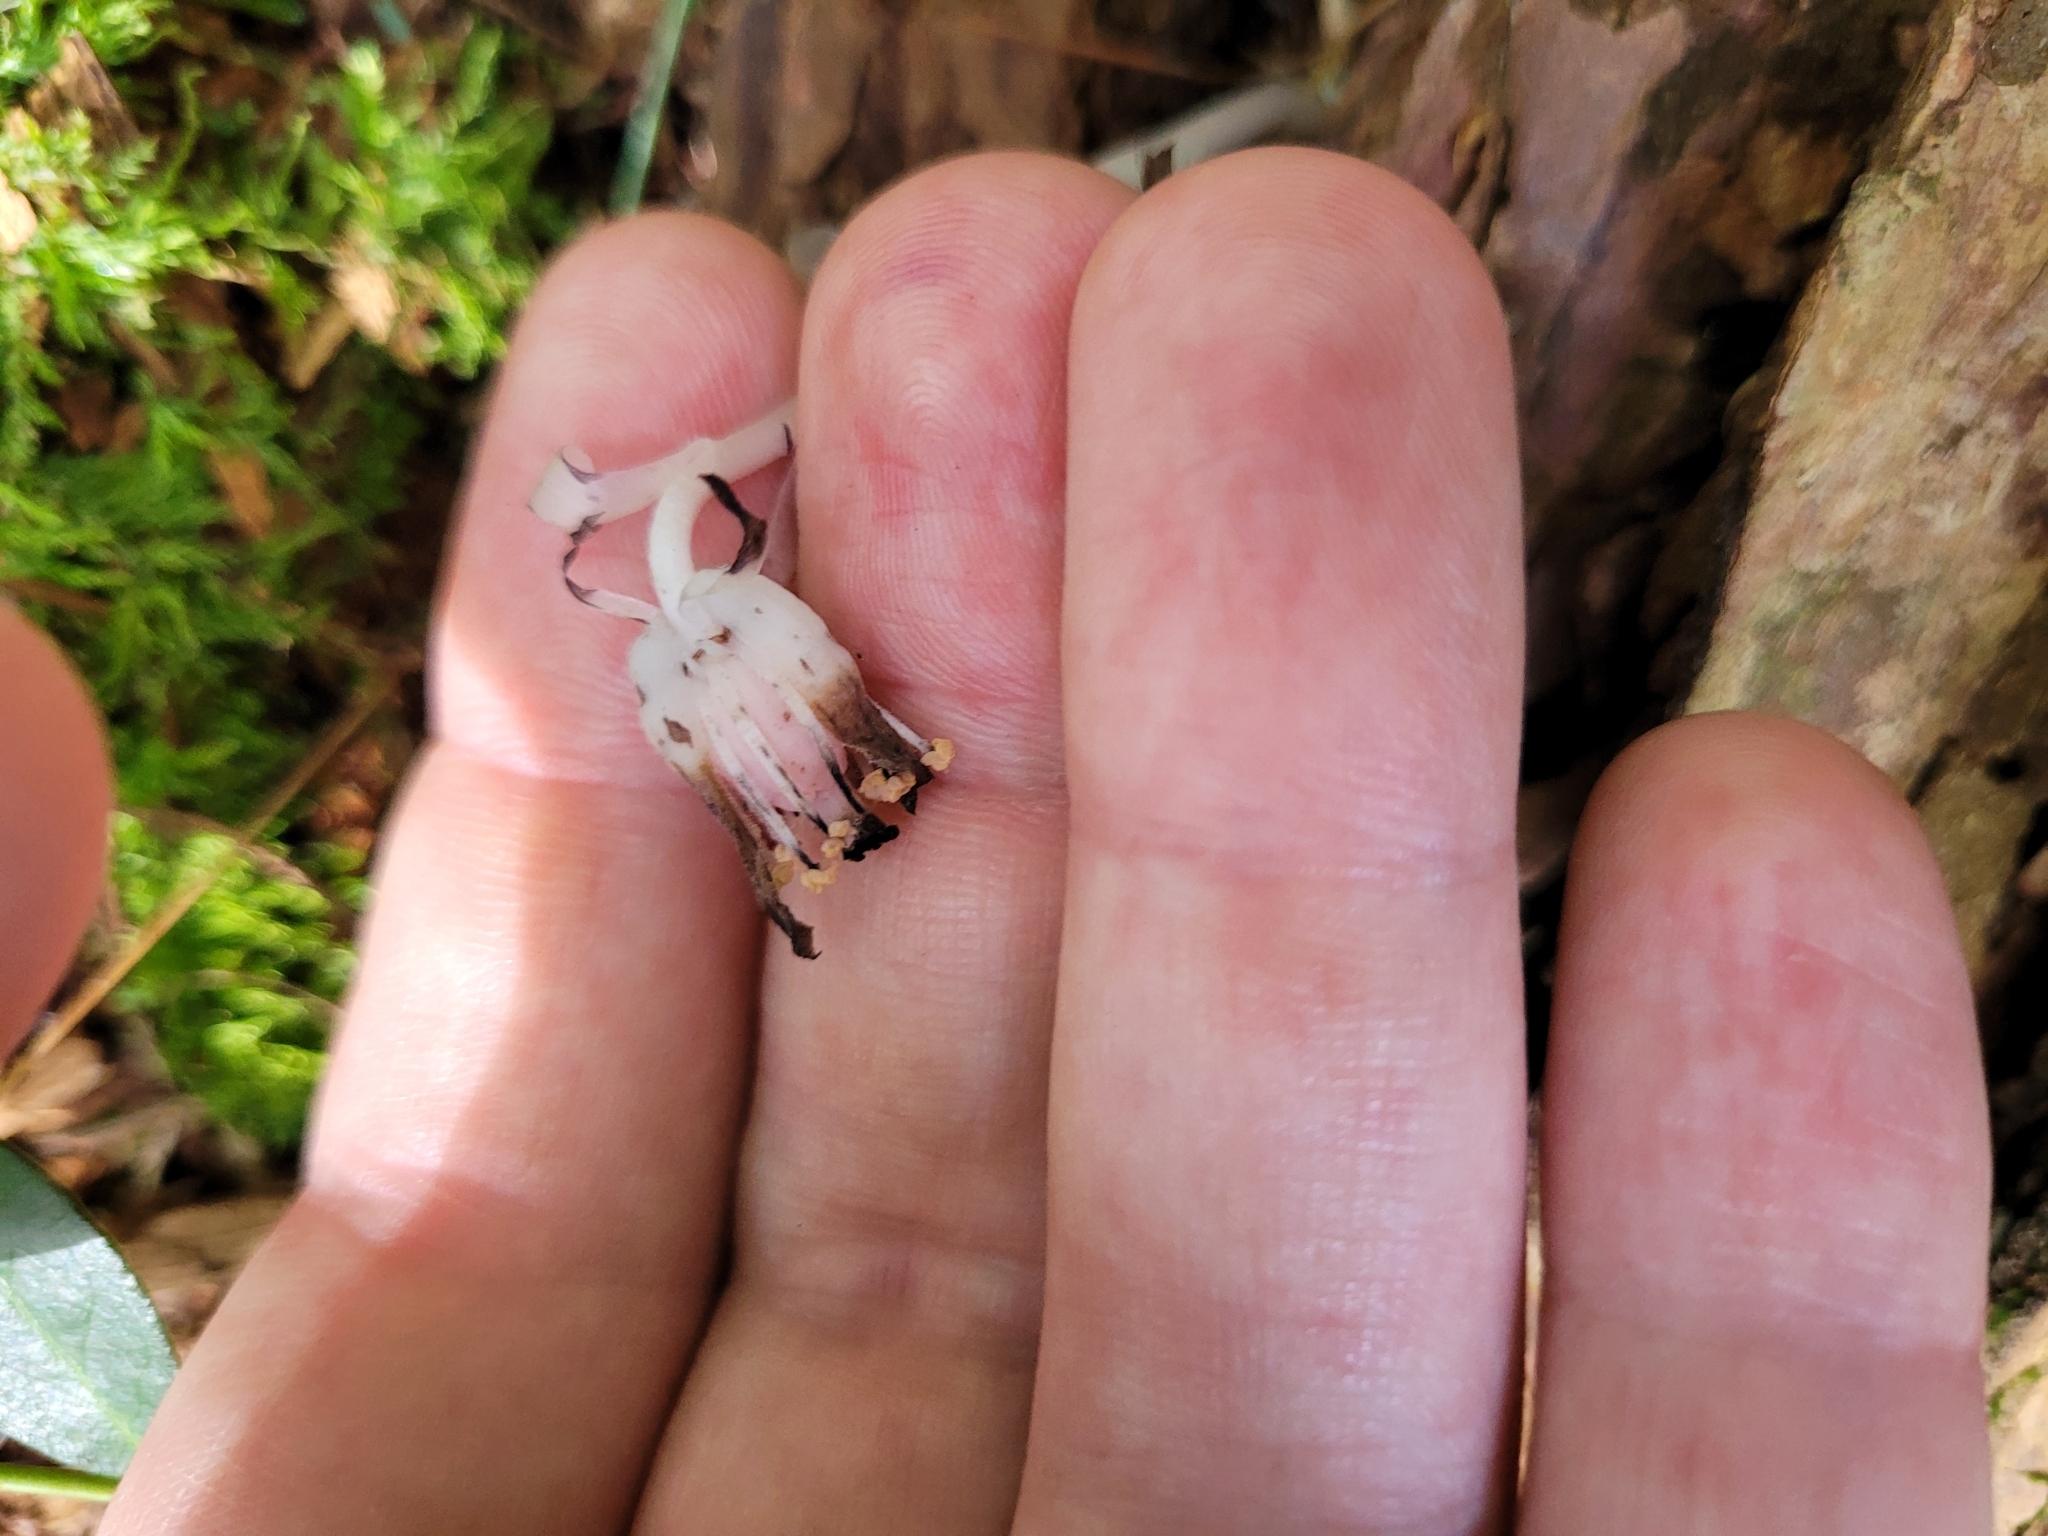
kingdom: Plantae
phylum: Tracheophyta
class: Magnoliopsida
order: Ericales
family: Ericaceae
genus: Monotropa
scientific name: Monotropa uniflora
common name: Convulsion root
